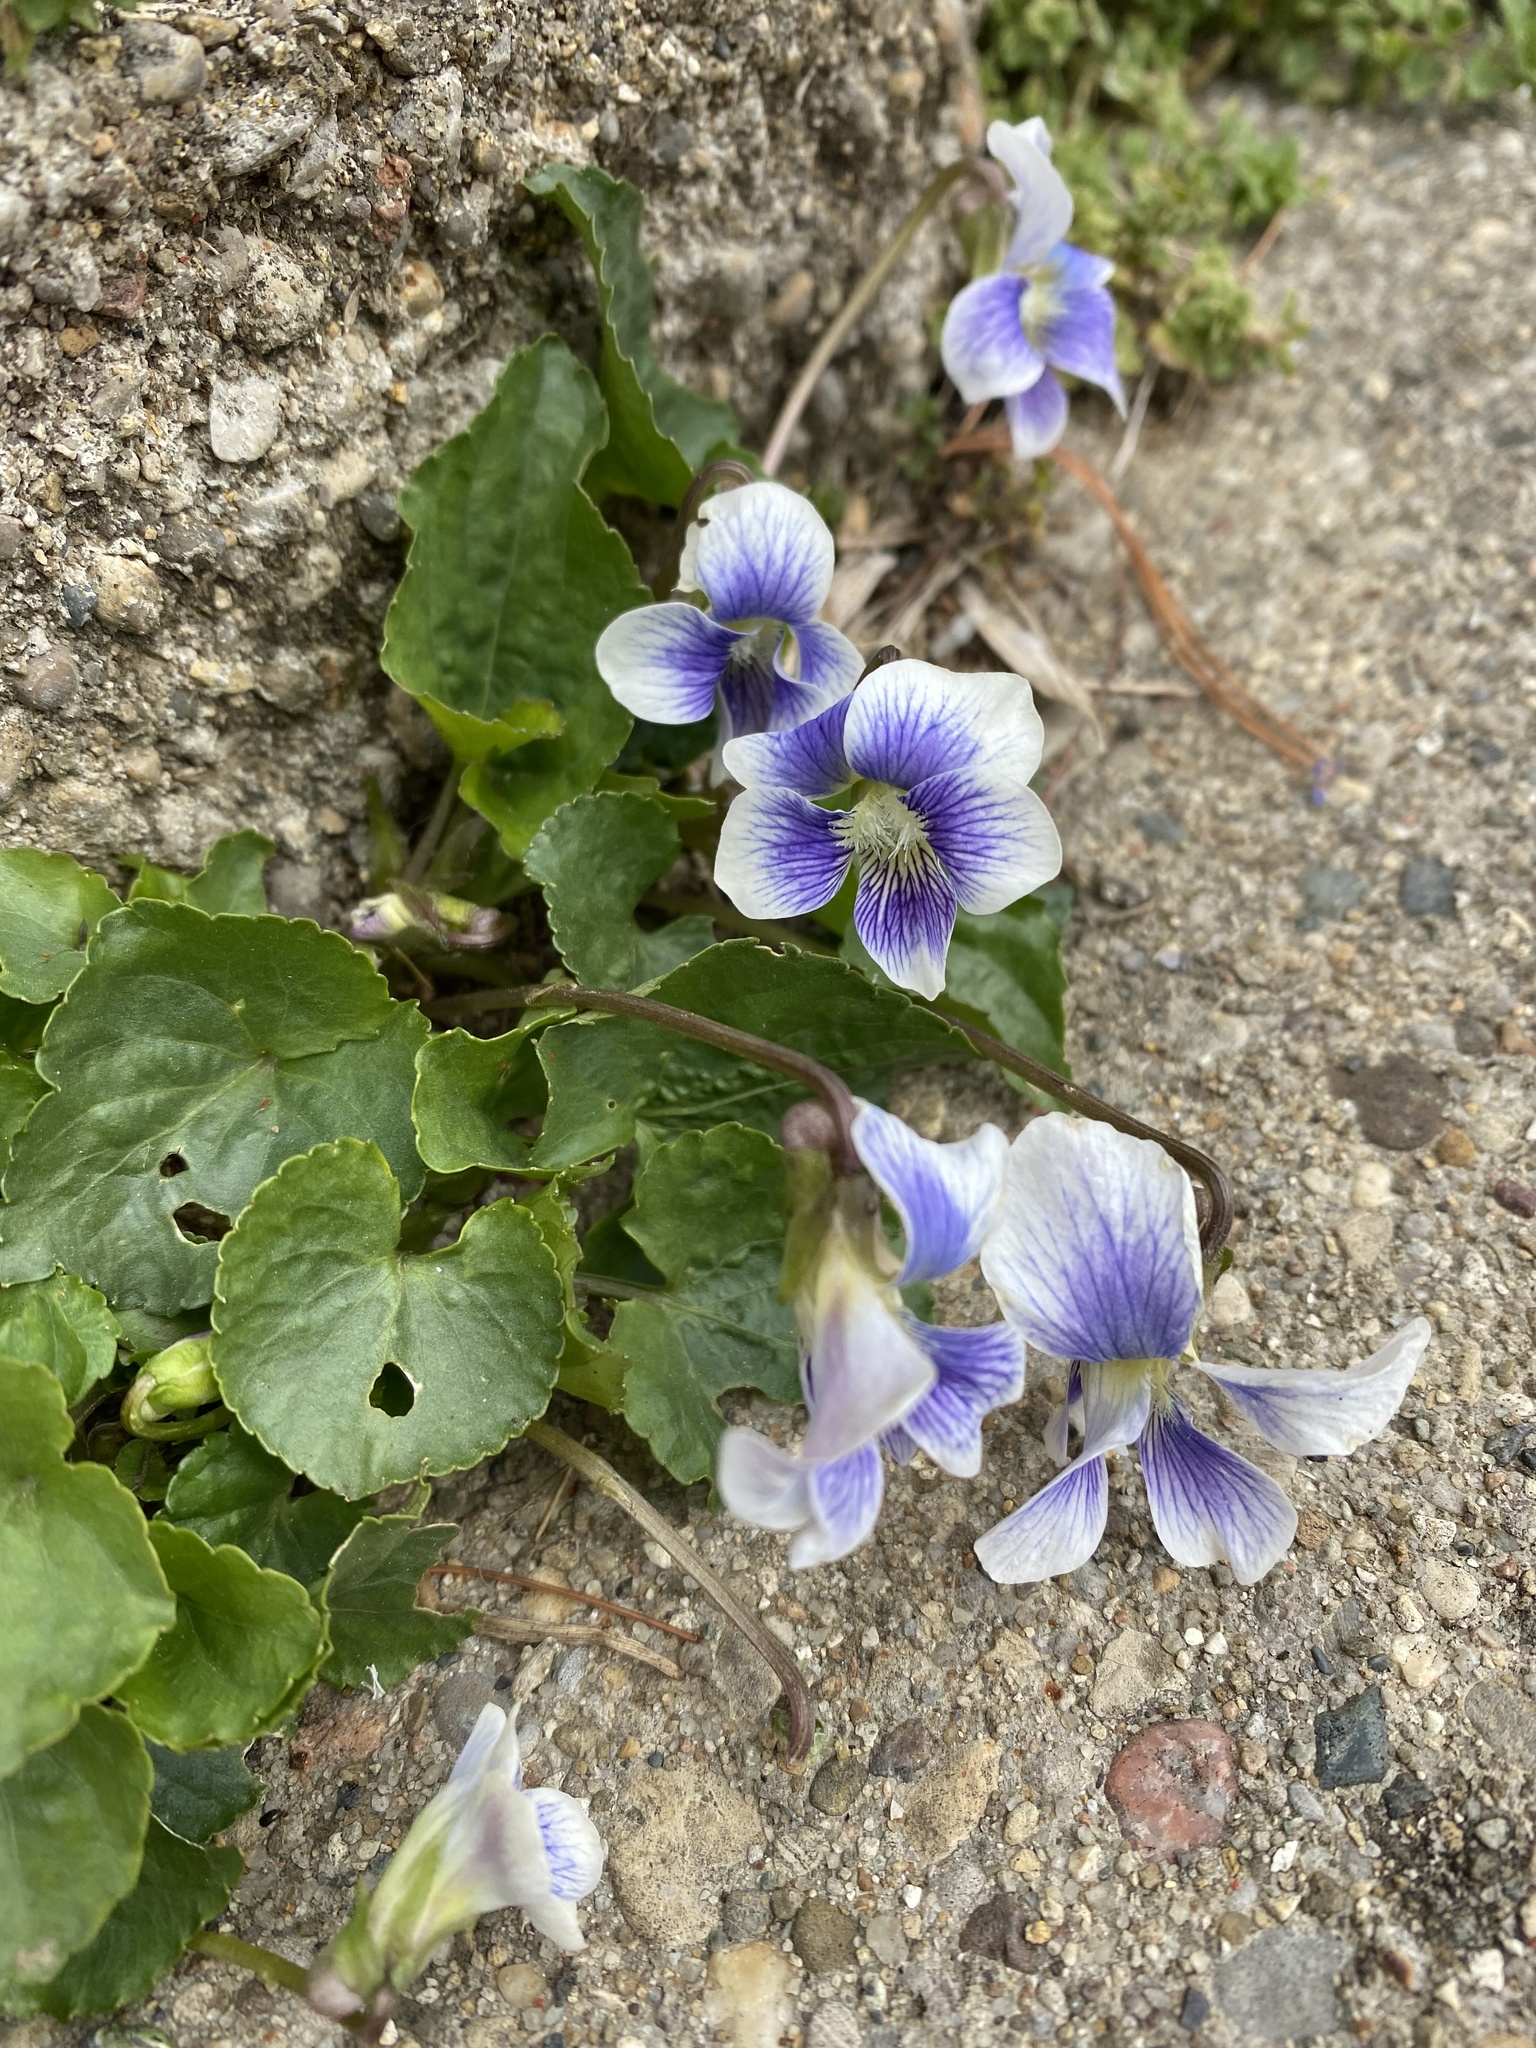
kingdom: Plantae
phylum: Tracheophyta
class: Magnoliopsida
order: Malpighiales
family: Violaceae
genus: Viola
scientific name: Viola sororia
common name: Dooryard violet
